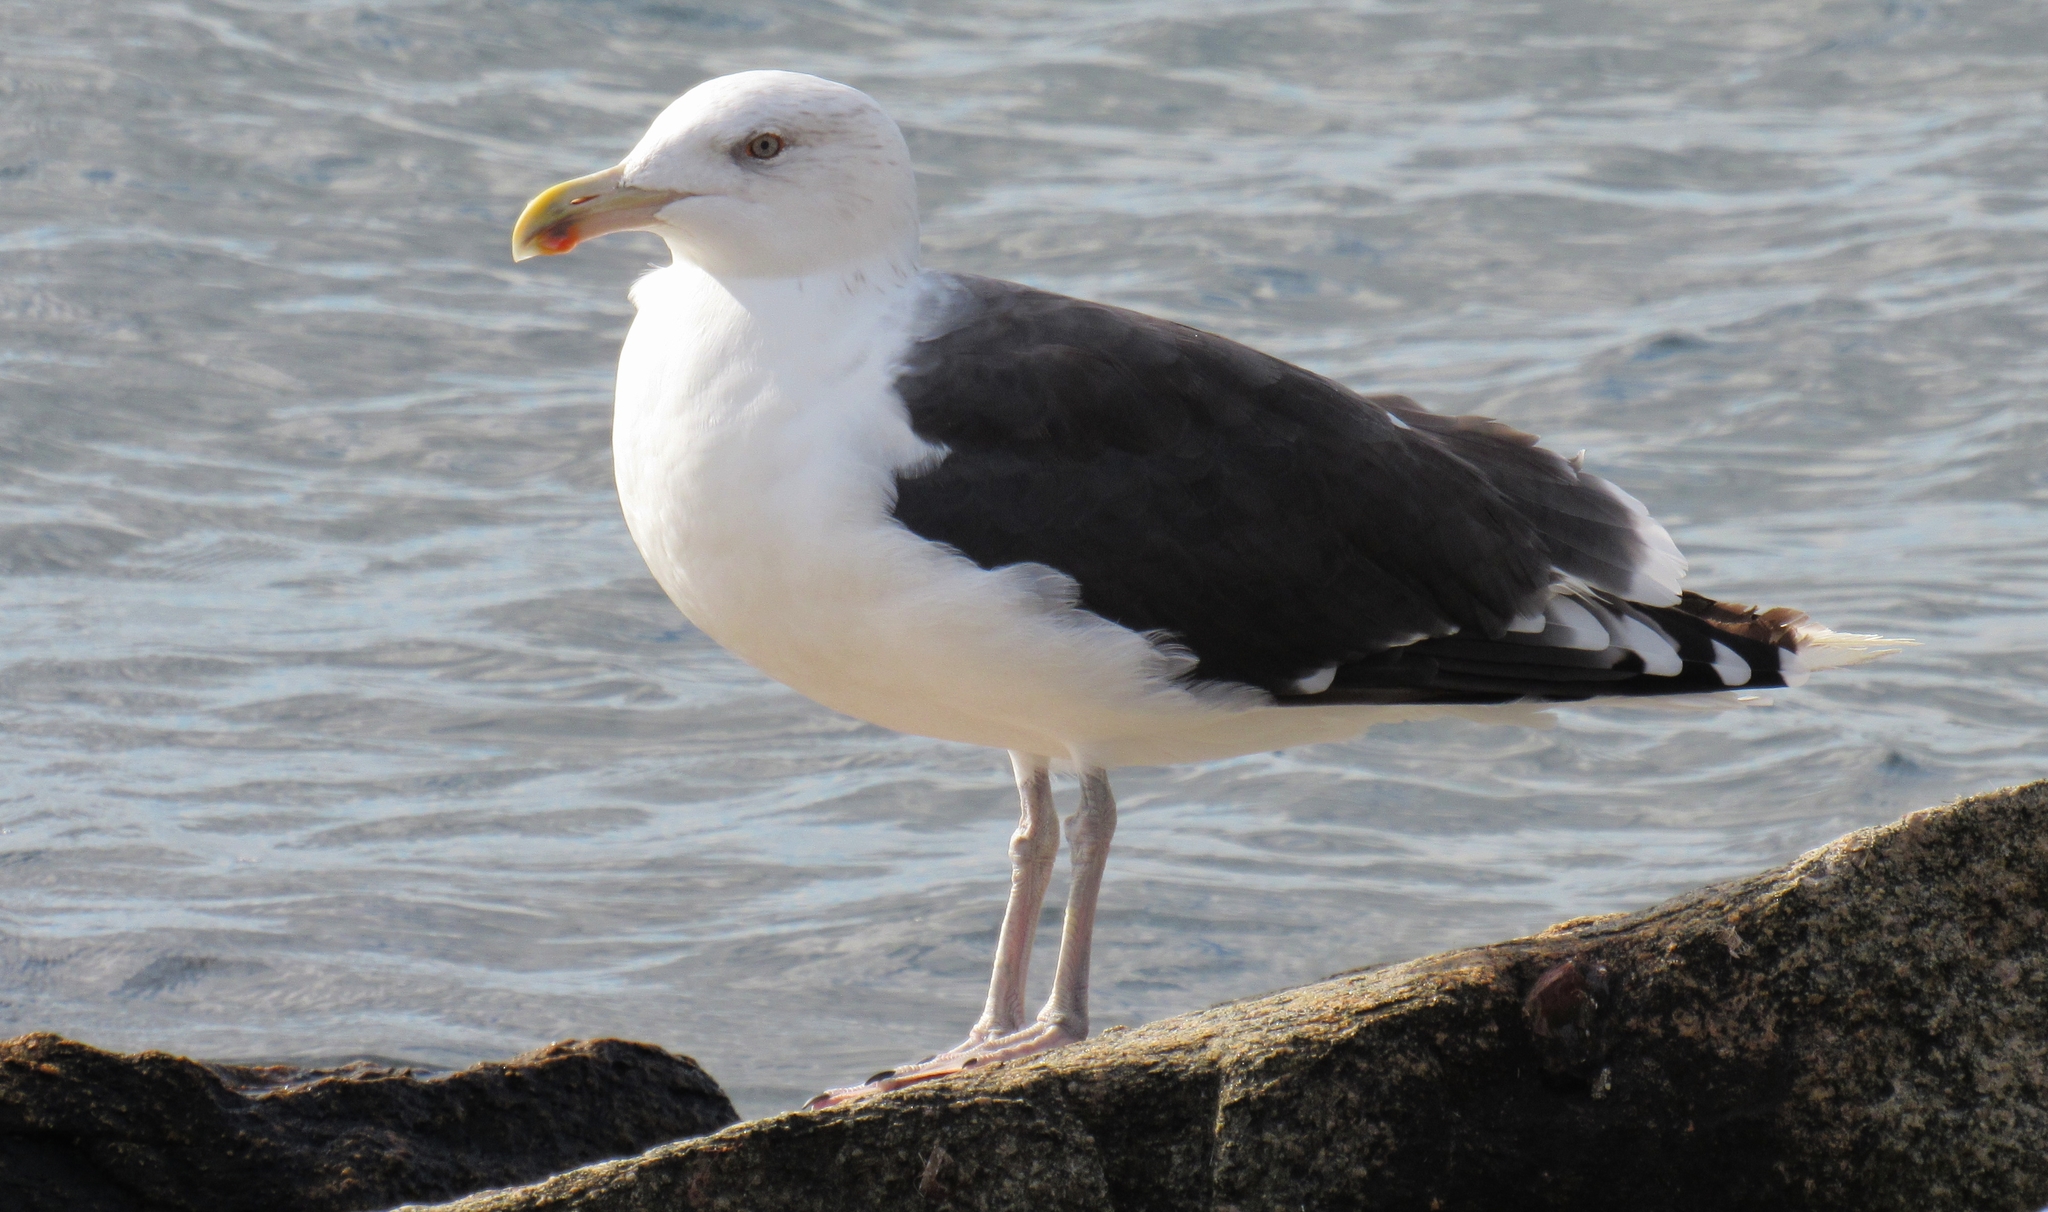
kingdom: Animalia
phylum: Chordata
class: Aves
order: Charadriiformes
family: Laridae
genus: Larus
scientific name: Larus marinus
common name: Great black-backed gull
